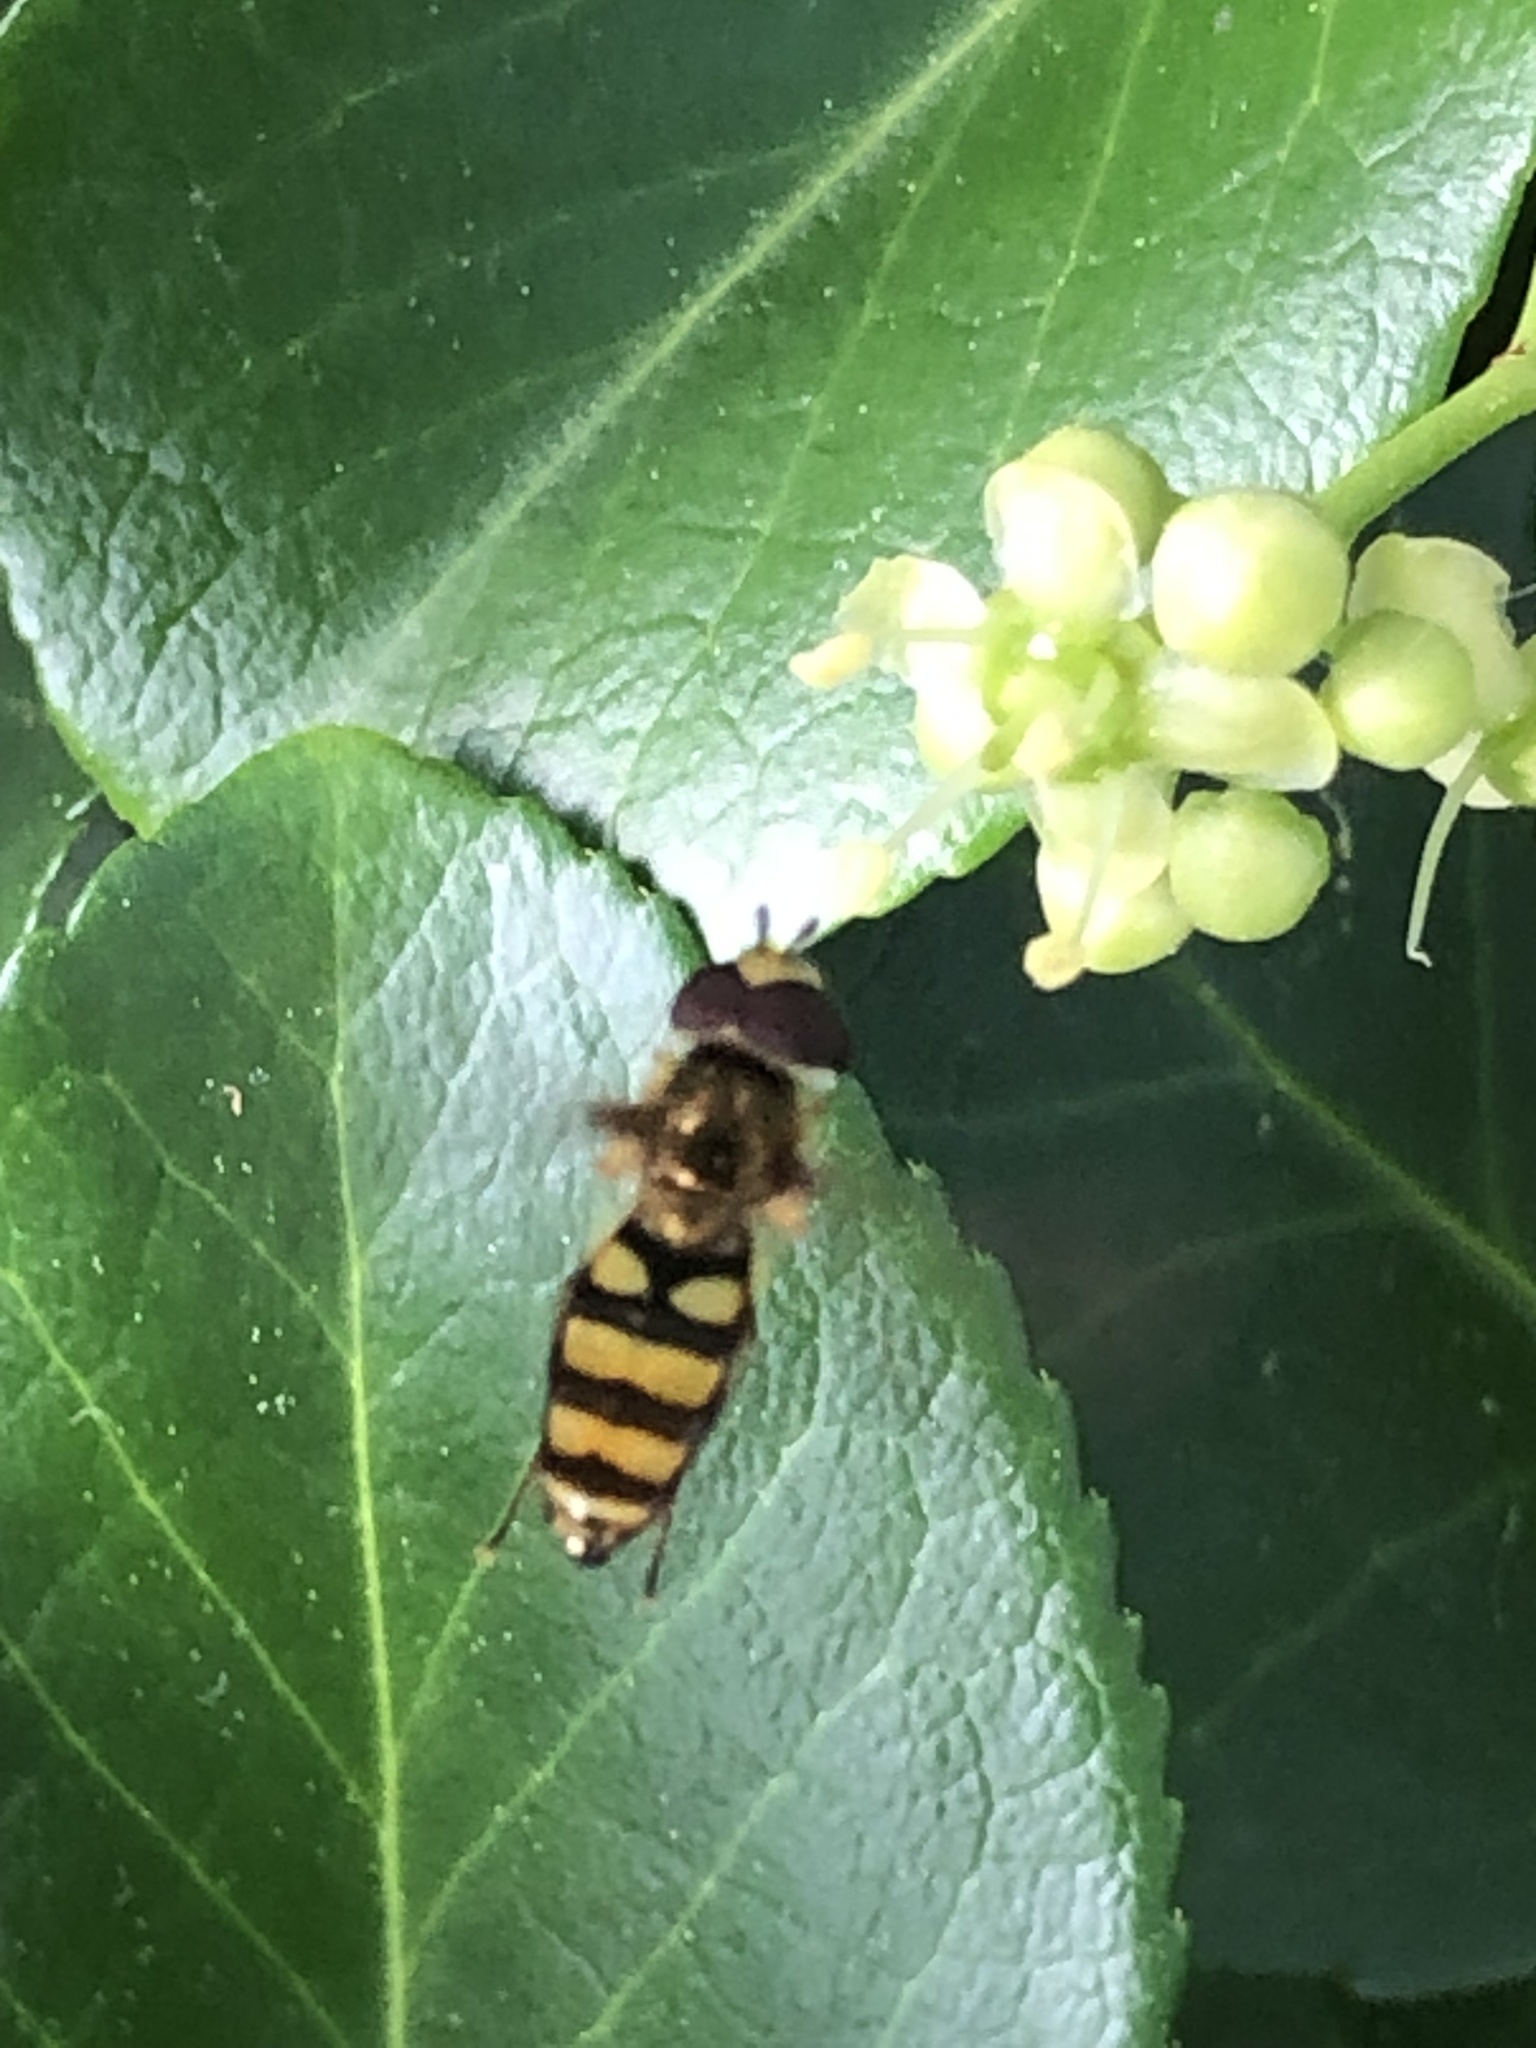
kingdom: Animalia
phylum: Arthropoda
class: Insecta
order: Diptera
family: Syrphidae
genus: Eupeodes
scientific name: Eupeodes
